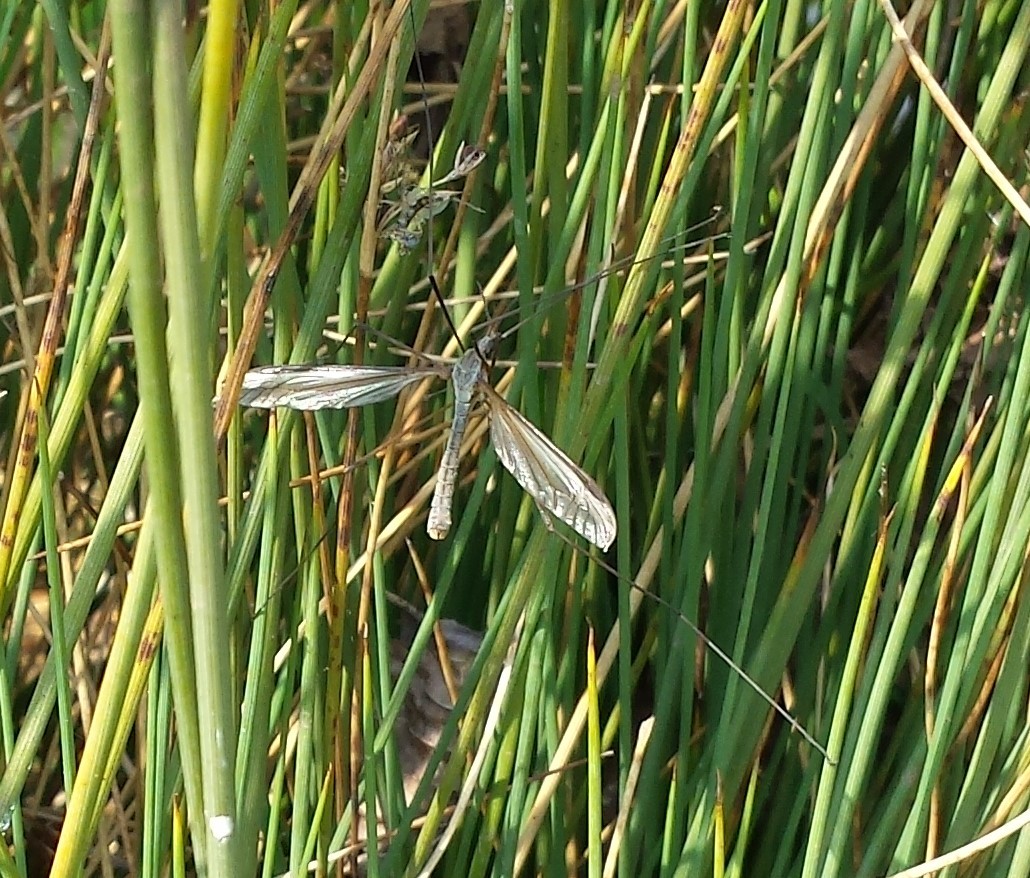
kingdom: Animalia
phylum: Arthropoda
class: Insecta
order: Diptera
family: Tipulidae
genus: Tipula
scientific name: Tipula paludosa
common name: European cranefly
